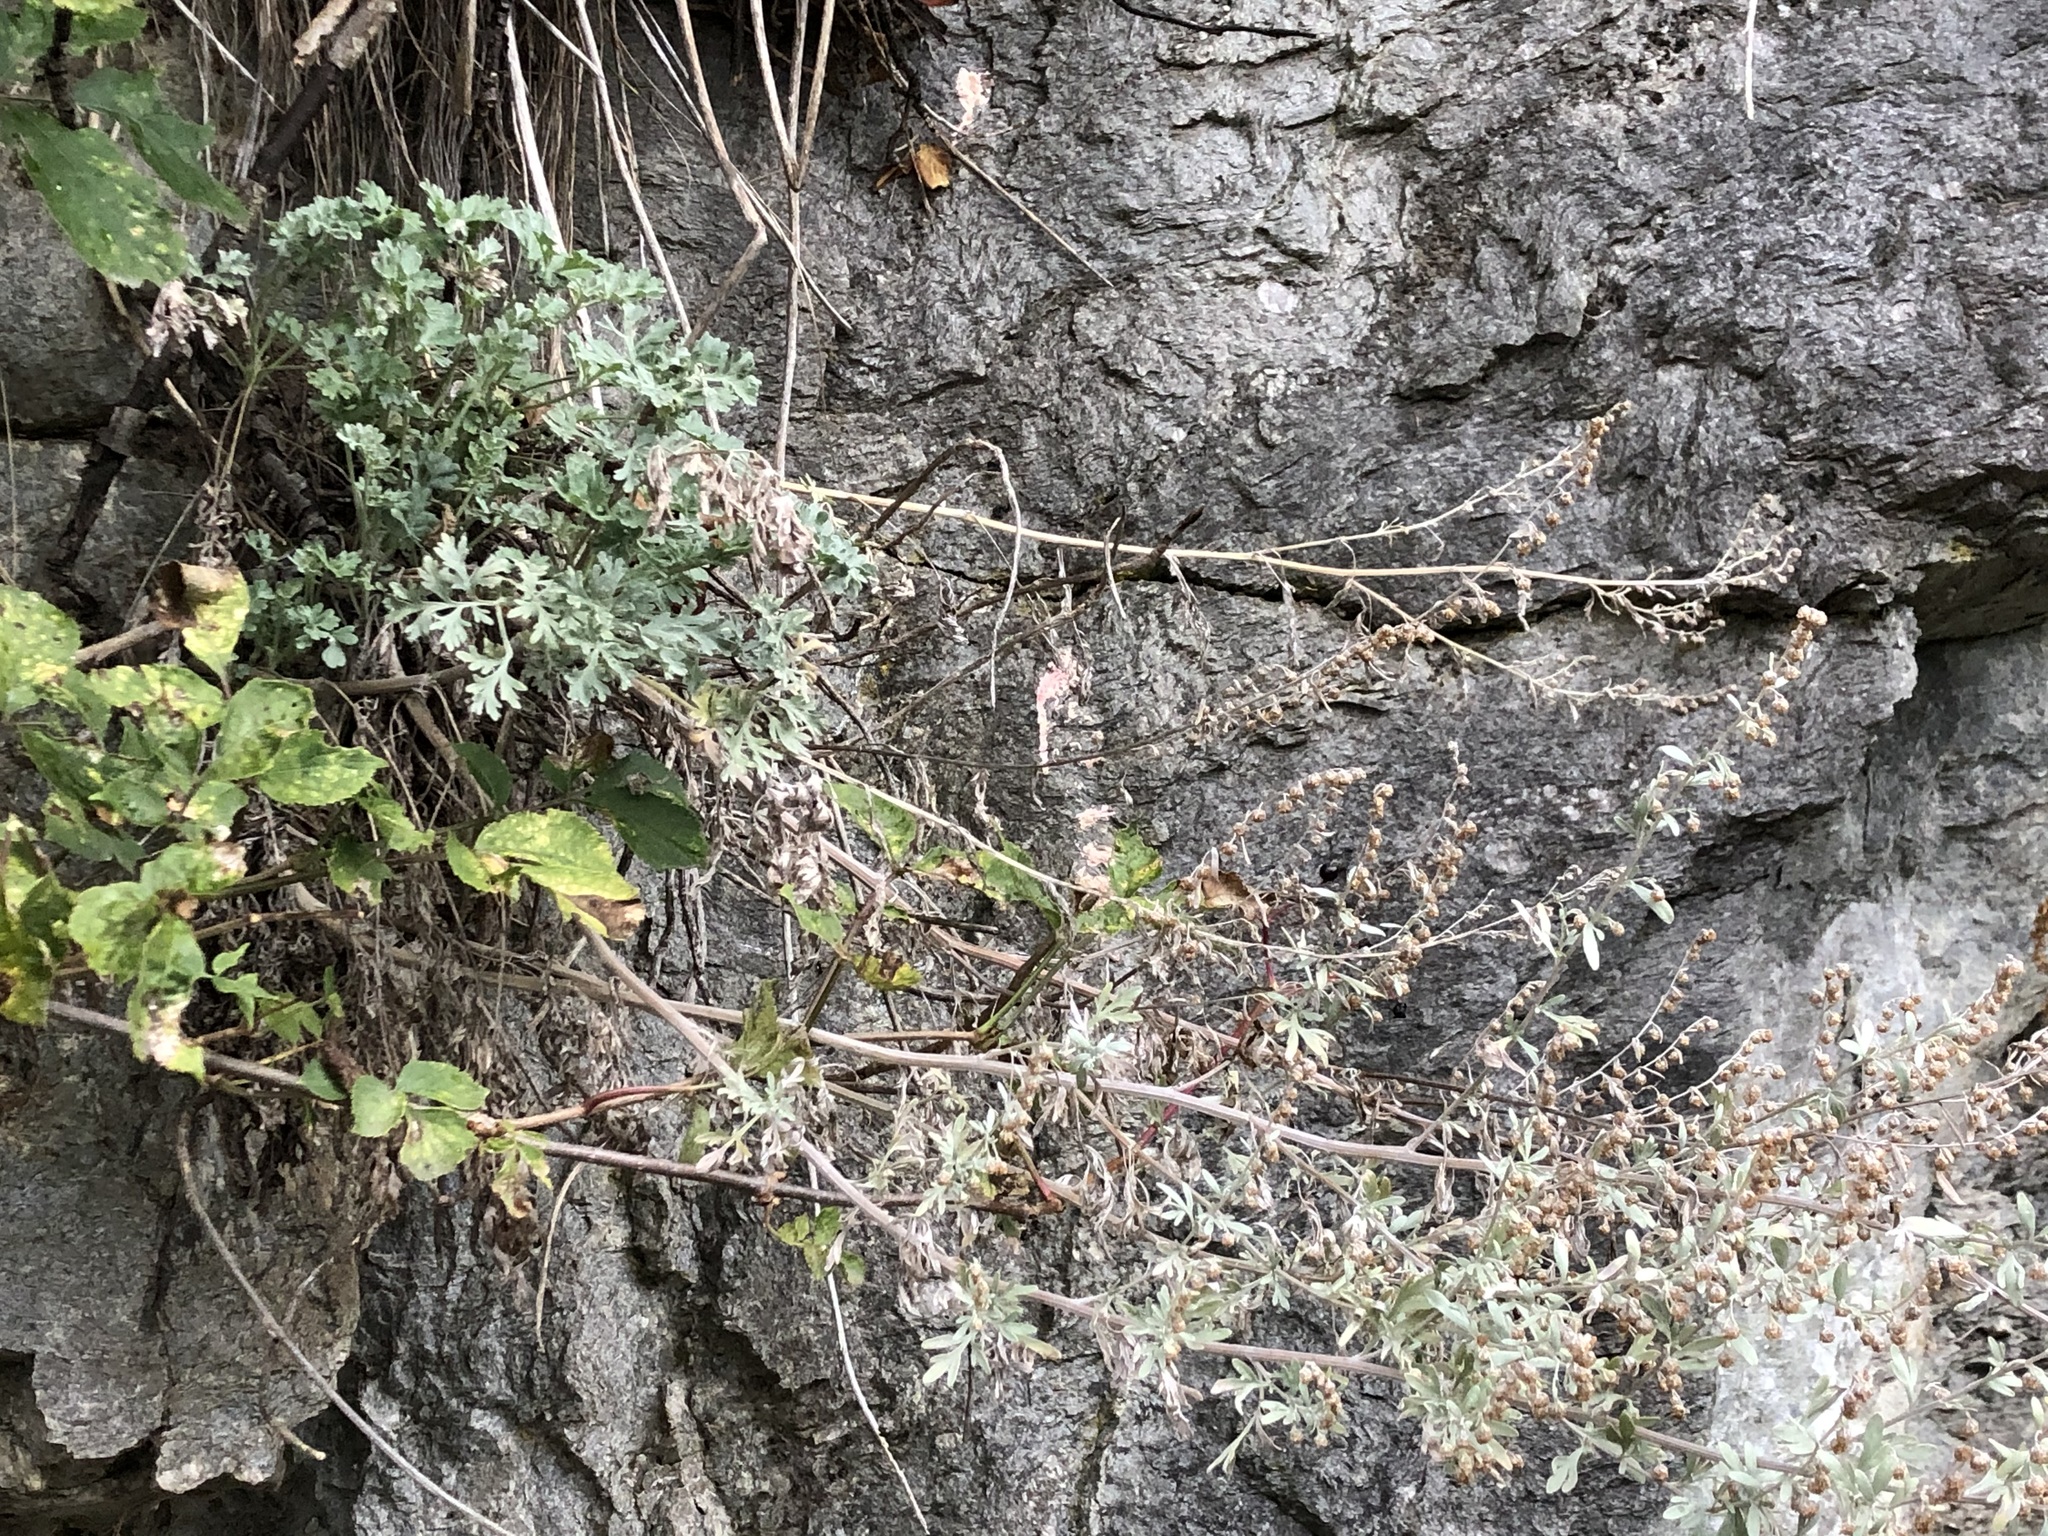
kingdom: Plantae
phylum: Tracheophyta
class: Magnoliopsida
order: Asterales
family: Asteraceae
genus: Artemisia
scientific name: Artemisia absinthium
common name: Wormwood
